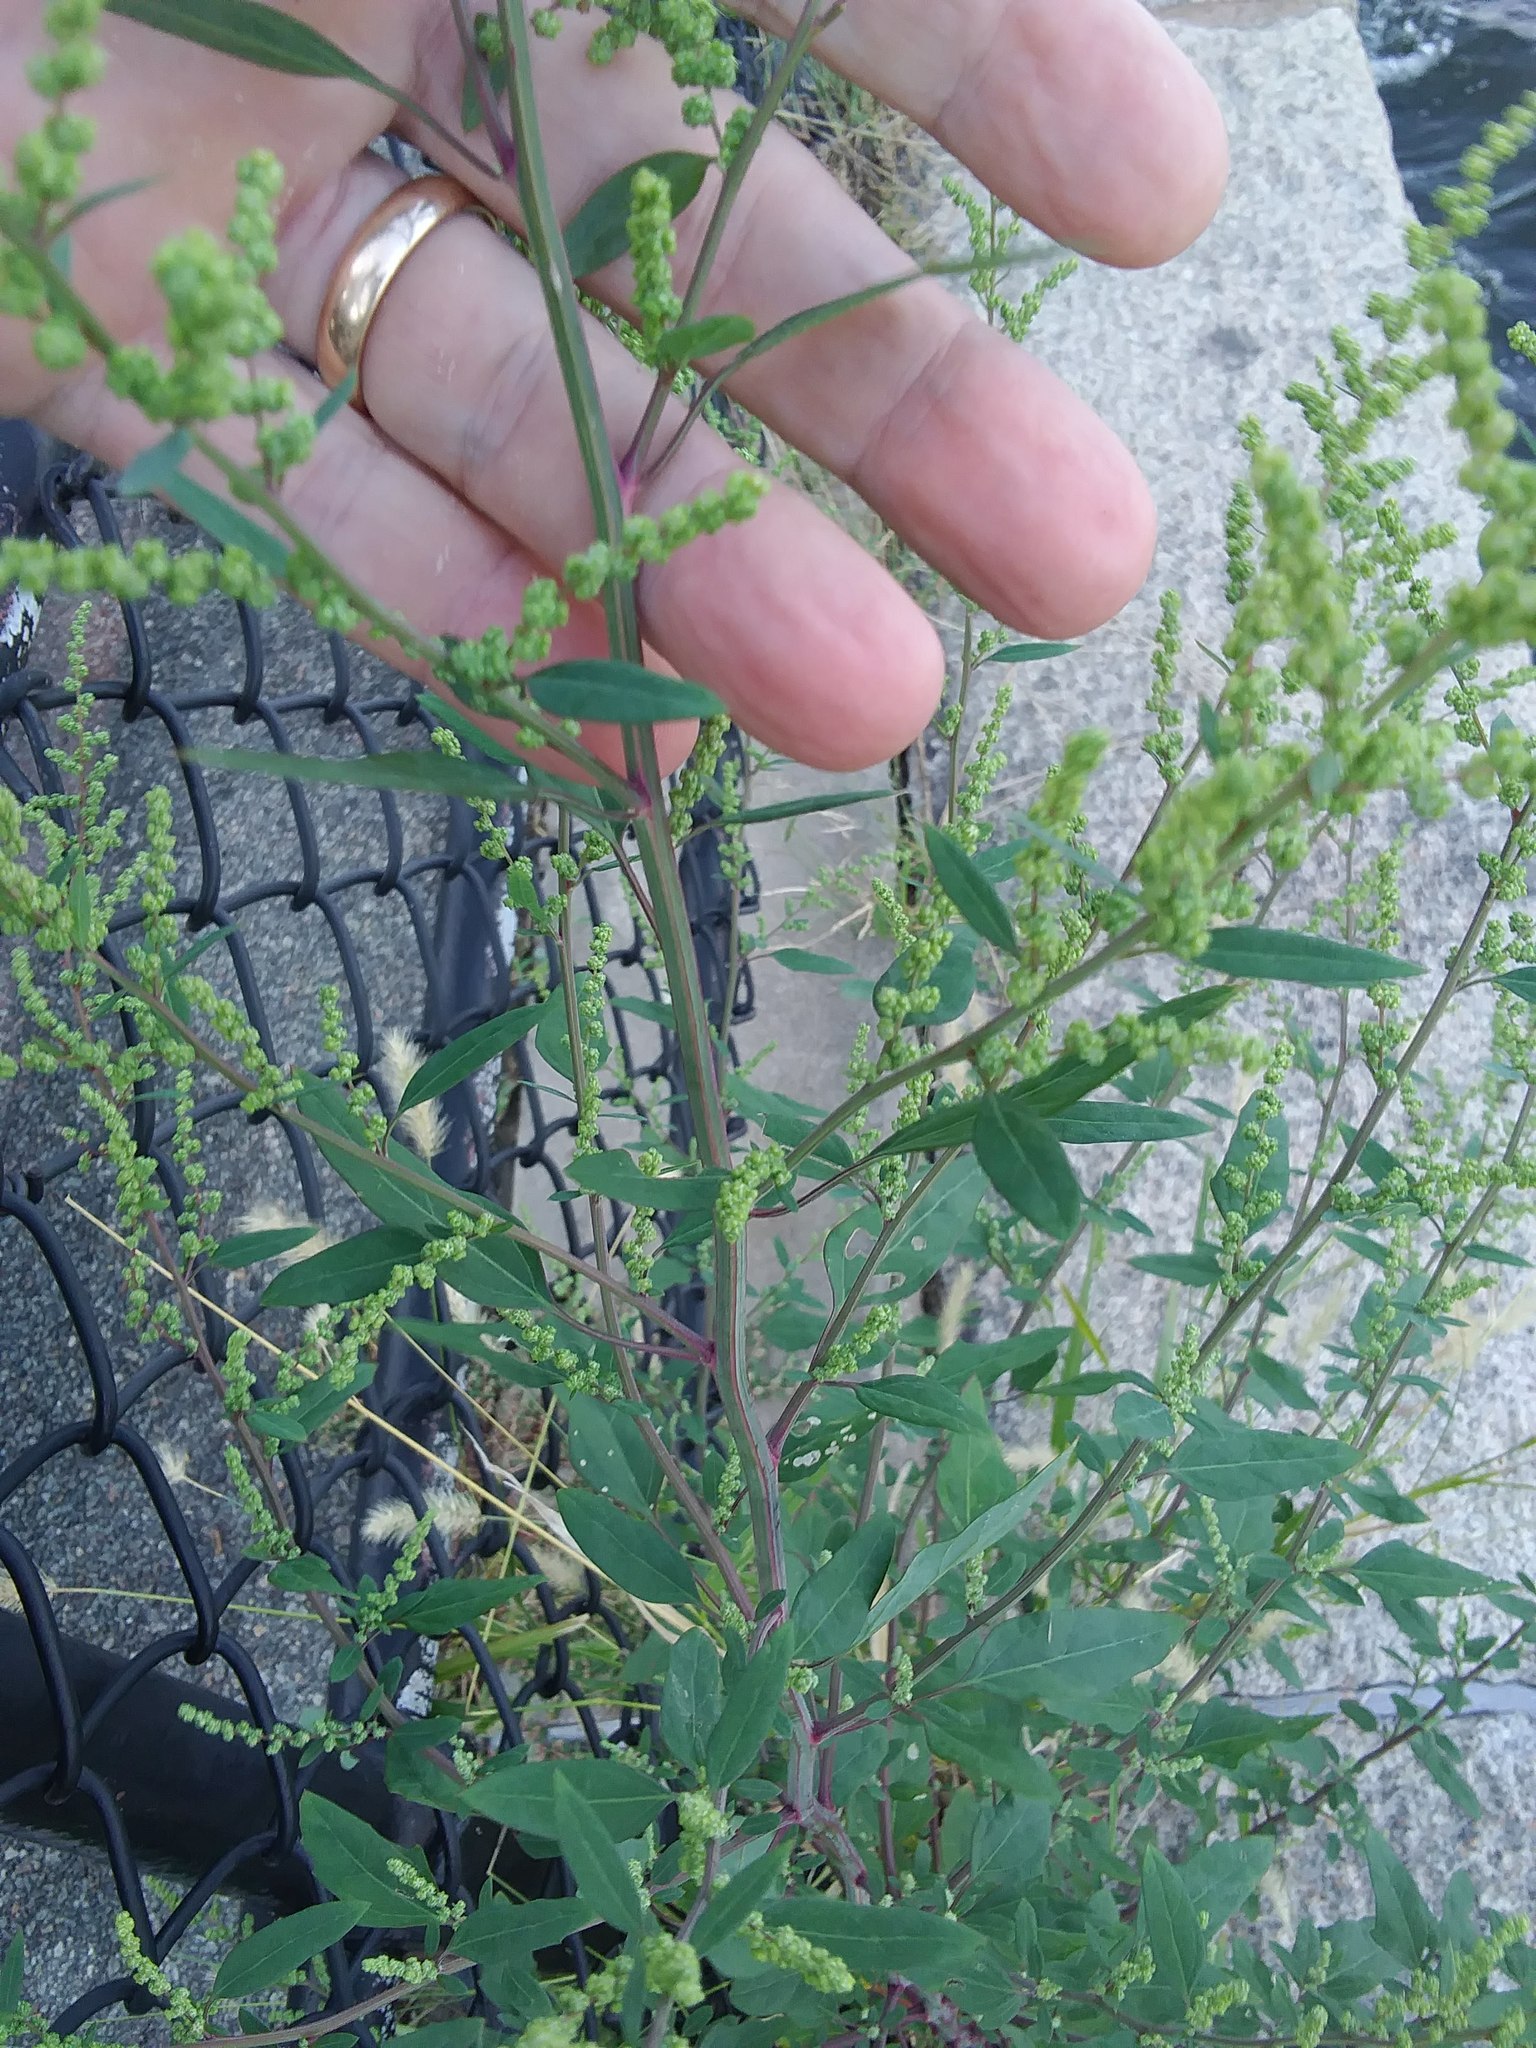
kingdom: Plantae
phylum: Tracheophyta
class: Magnoliopsida
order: Caryophyllales
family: Amaranthaceae
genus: Chenopodium
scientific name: Chenopodium album
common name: Fat-hen
